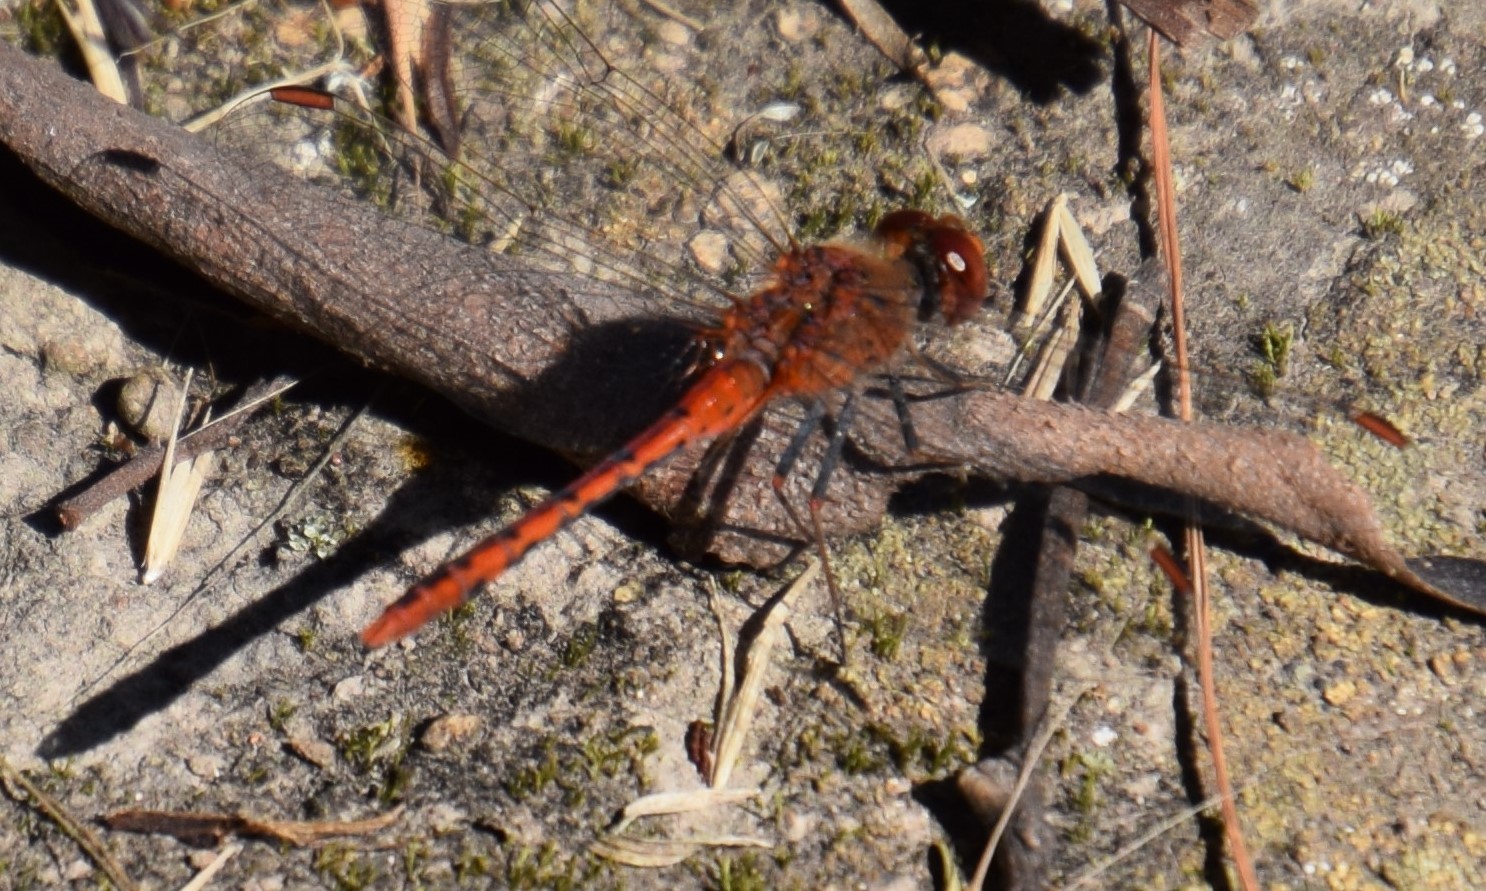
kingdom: Animalia
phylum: Arthropoda
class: Insecta
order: Odonata
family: Libellulidae
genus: Diplacodes
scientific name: Diplacodes bipunctata
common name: Red percher dragonfly
